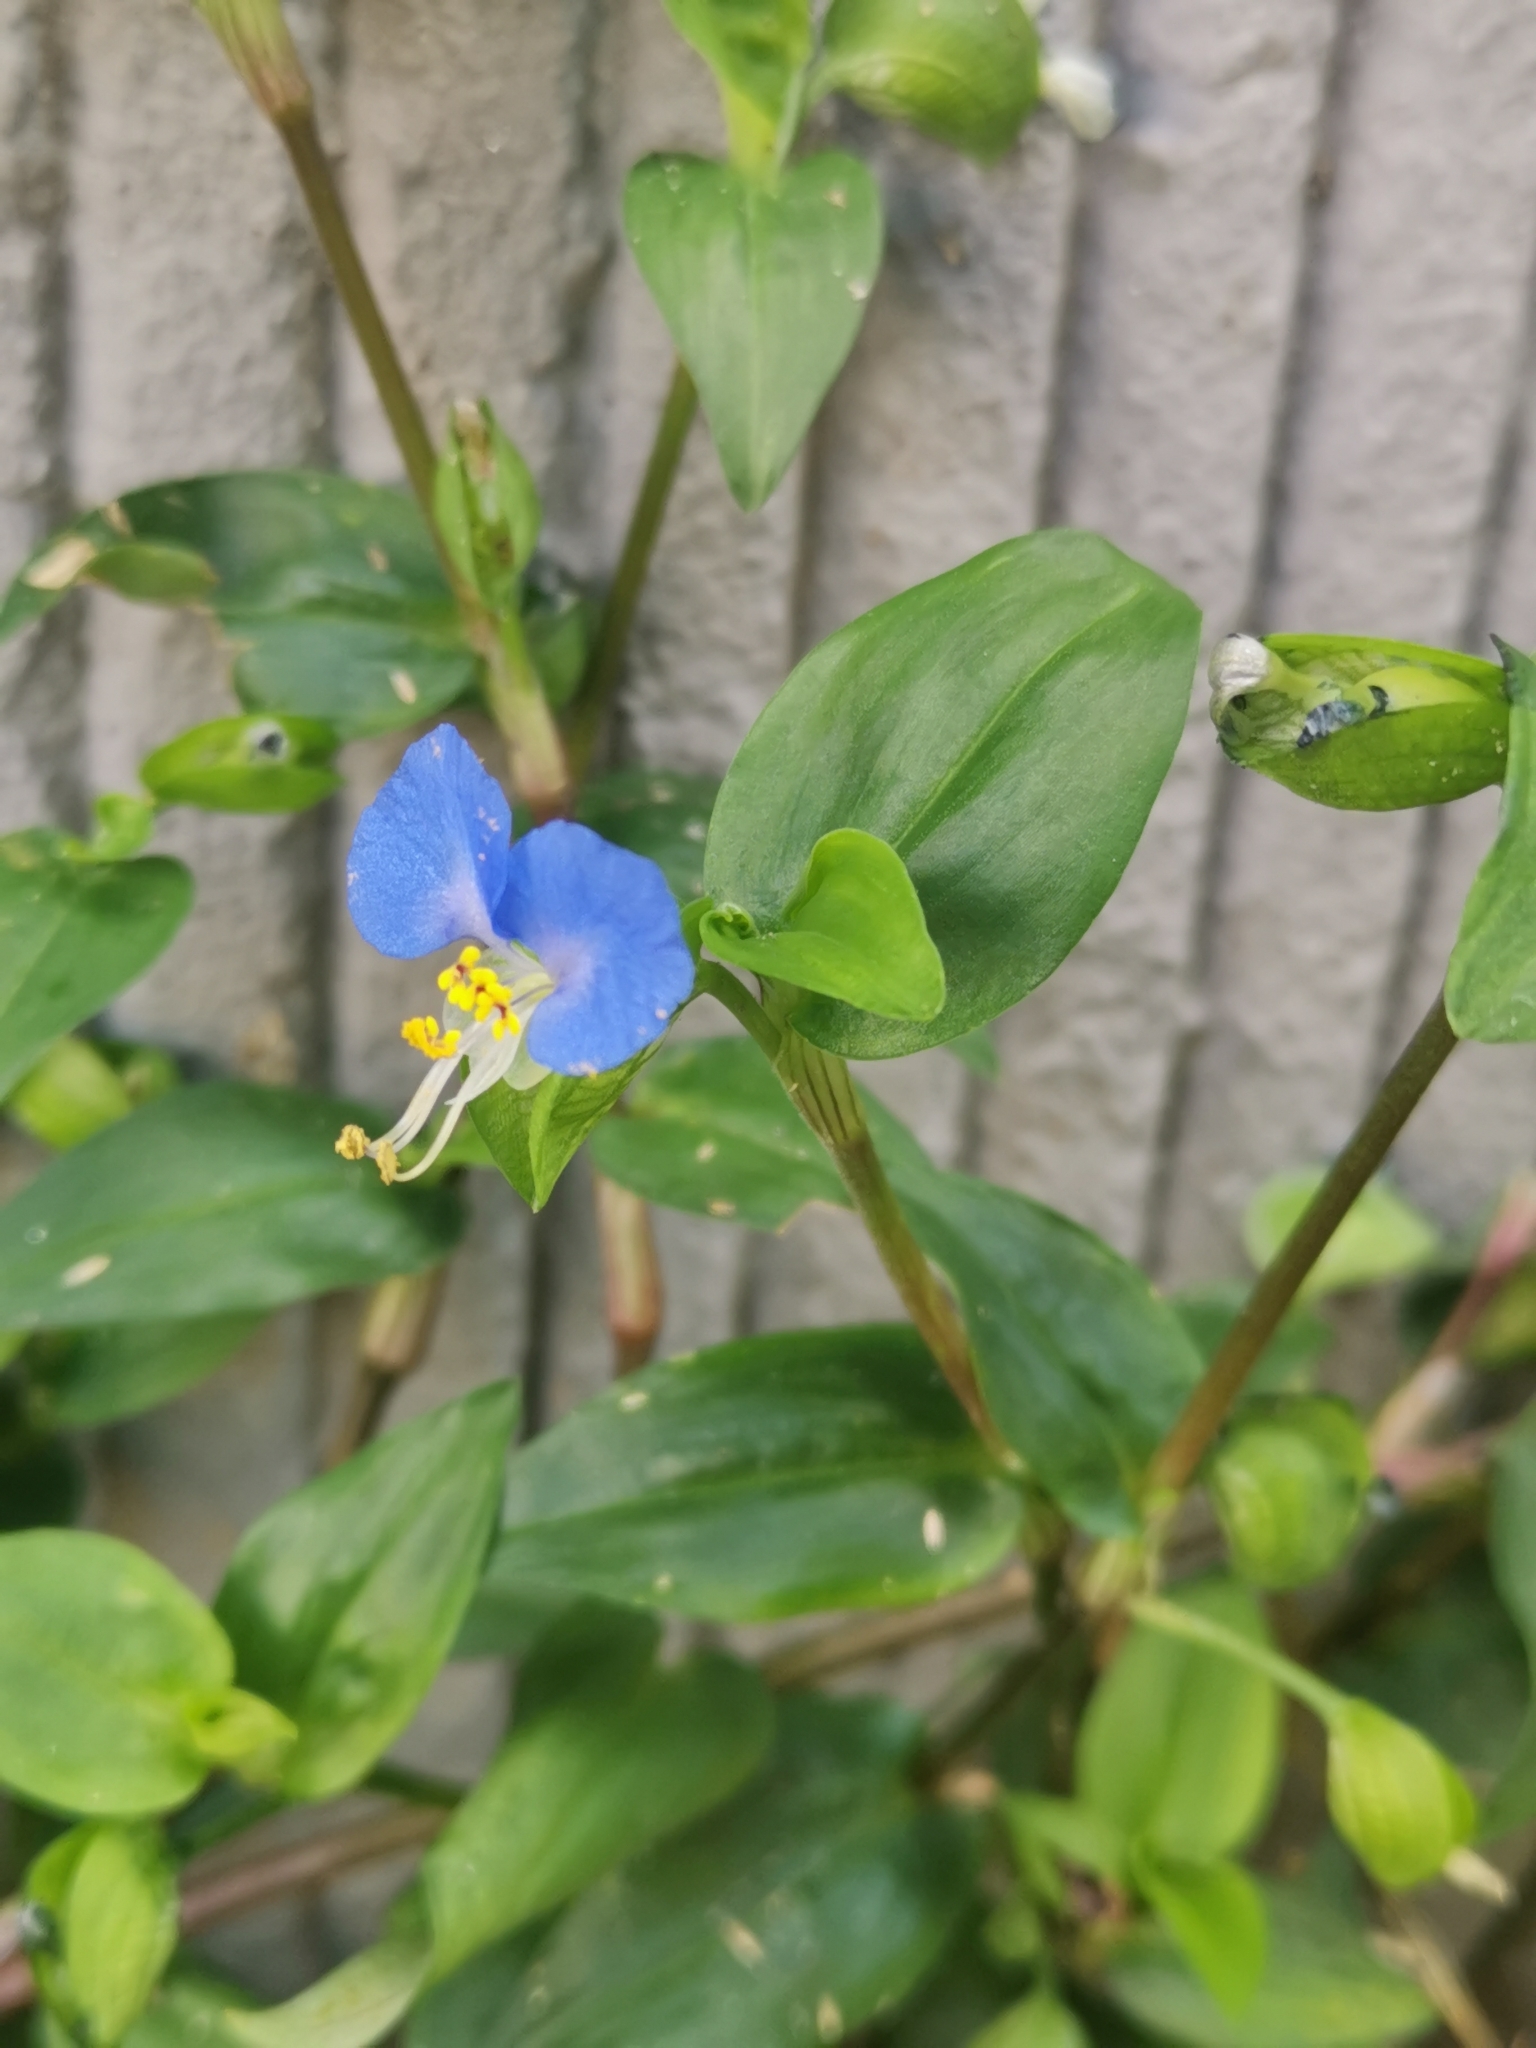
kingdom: Plantae
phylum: Tracheophyta
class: Liliopsida
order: Commelinales
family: Commelinaceae
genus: Commelina
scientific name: Commelina communis
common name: Asiatic dayflower
